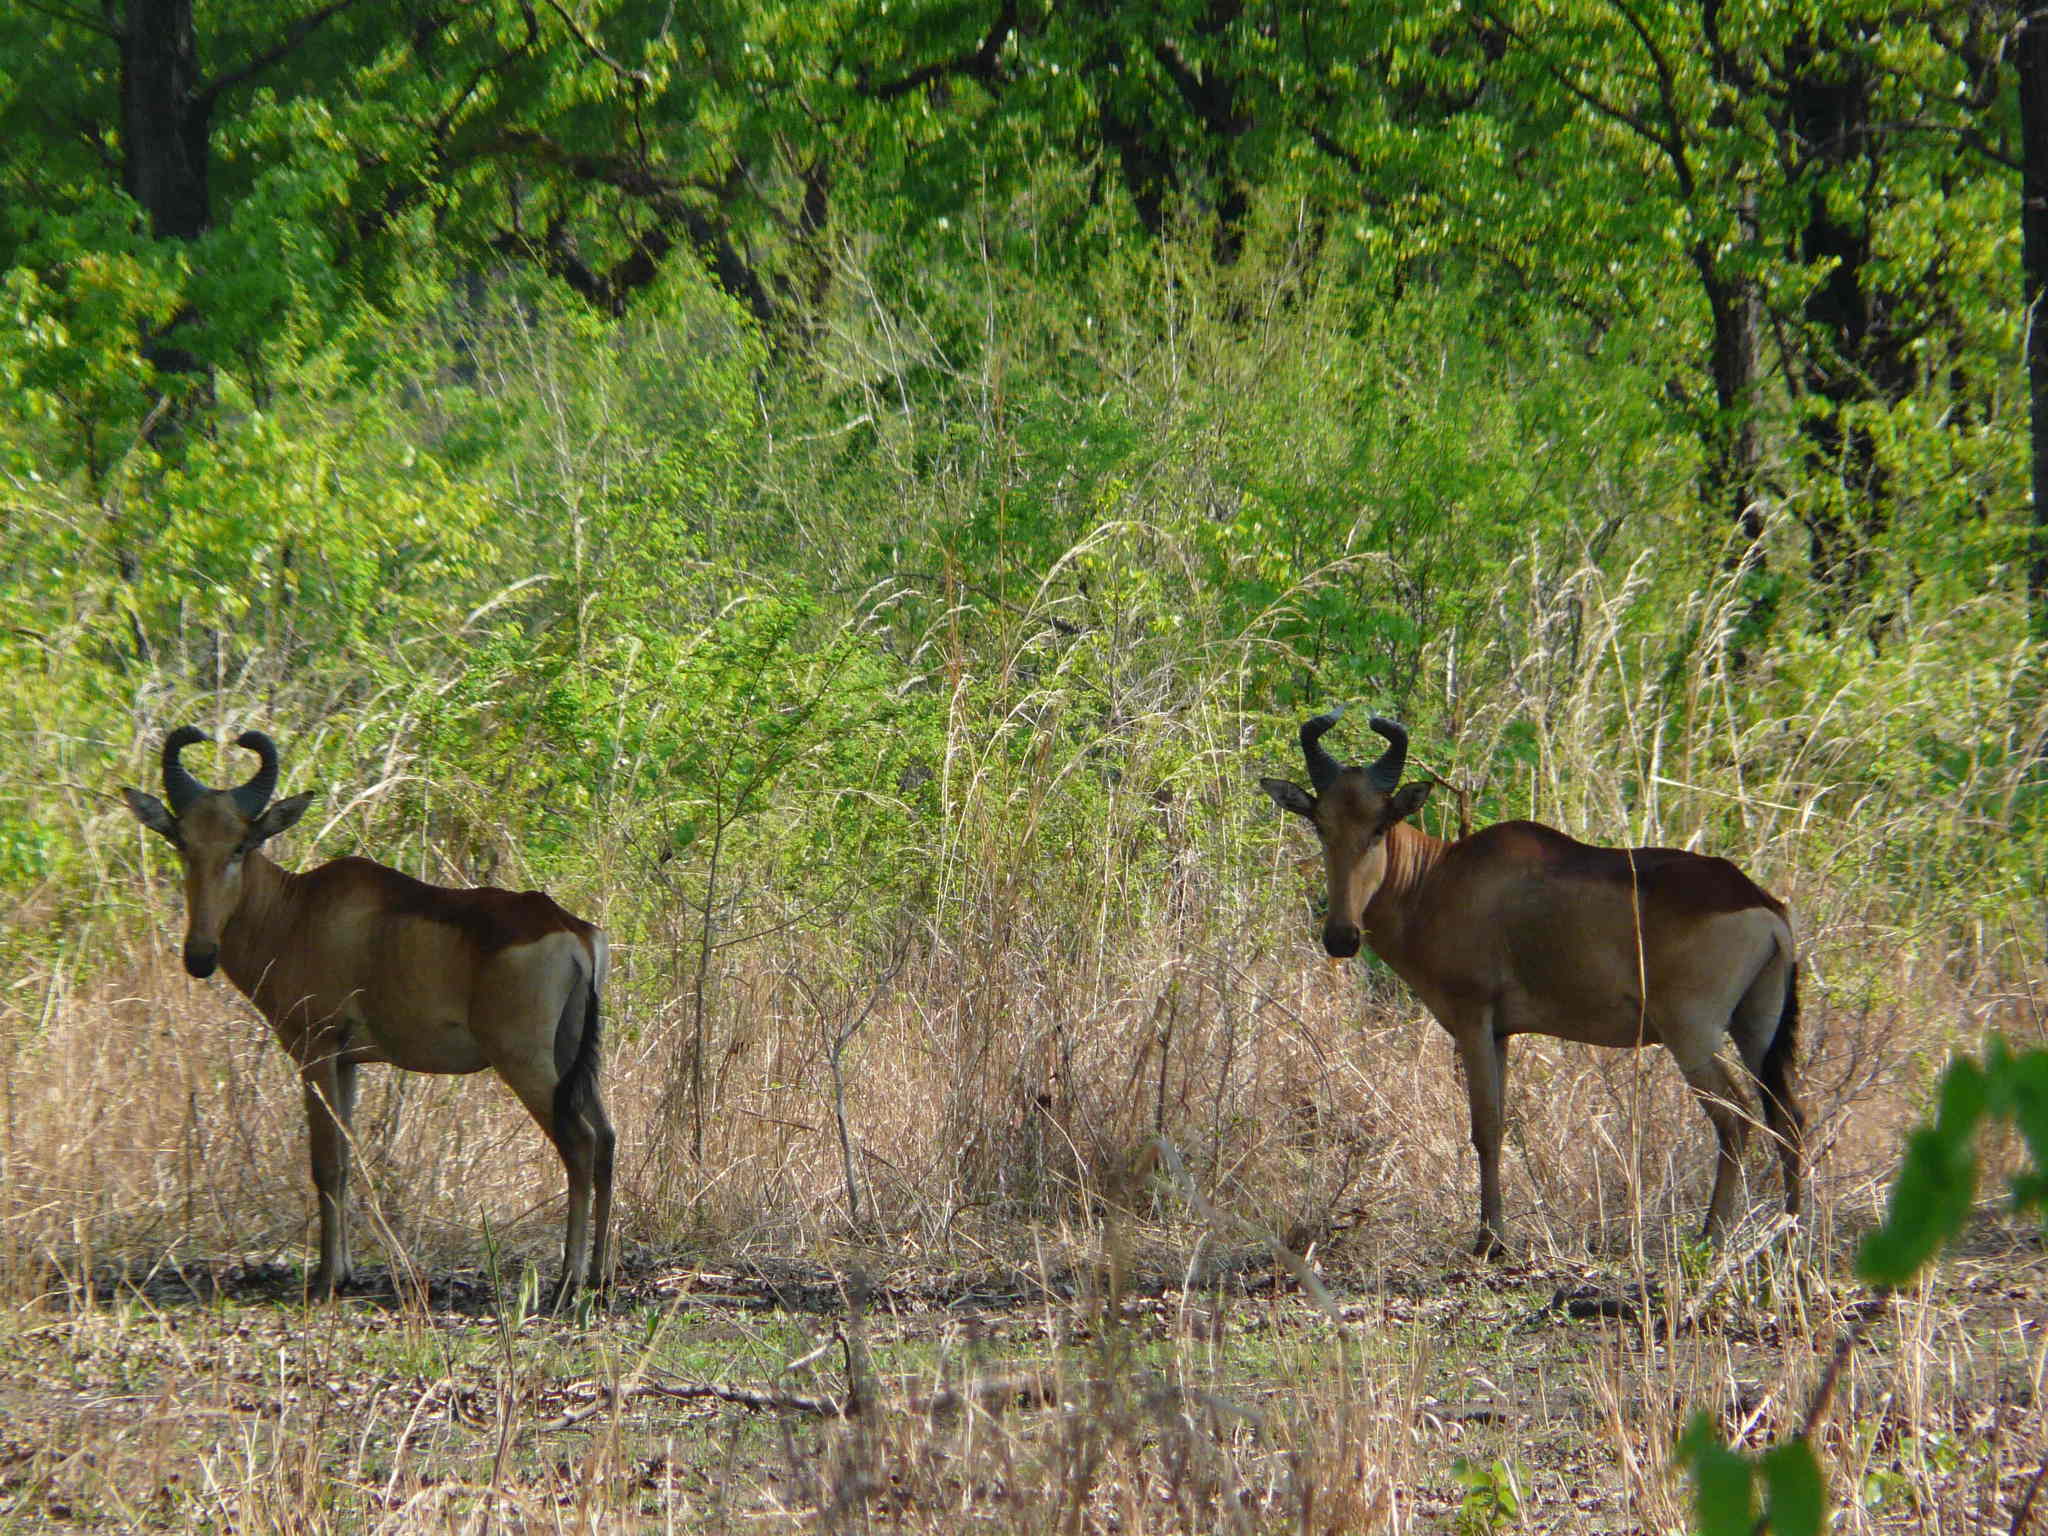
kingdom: Animalia
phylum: Chordata
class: Mammalia
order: Artiodactyla
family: Bovidae
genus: Alcelaphus
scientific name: Alcelaphus buselaphus
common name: Hartebeest
